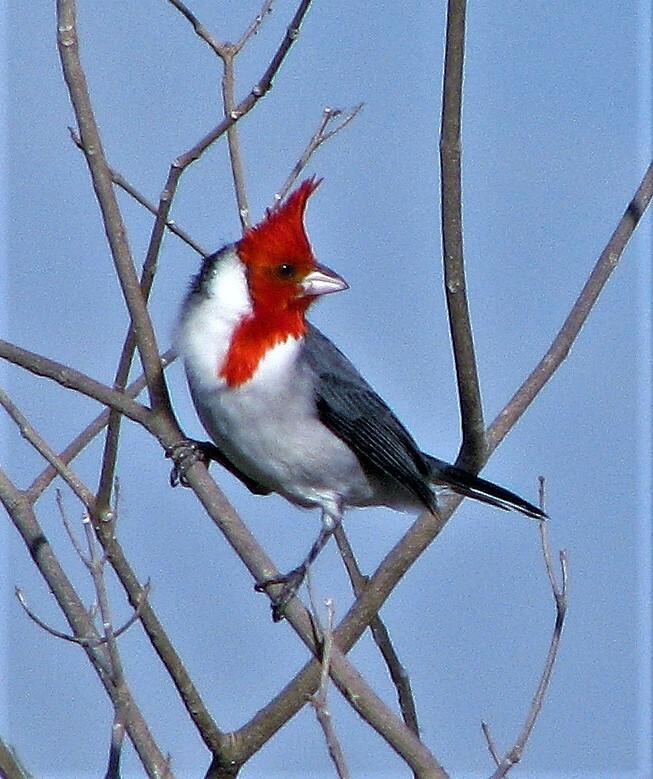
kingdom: Animalia
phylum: Chordata
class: Aves
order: Passeriformes
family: Thraupidae
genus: Paroaria
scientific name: Paroaria coronata
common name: Red-crested cardinal
